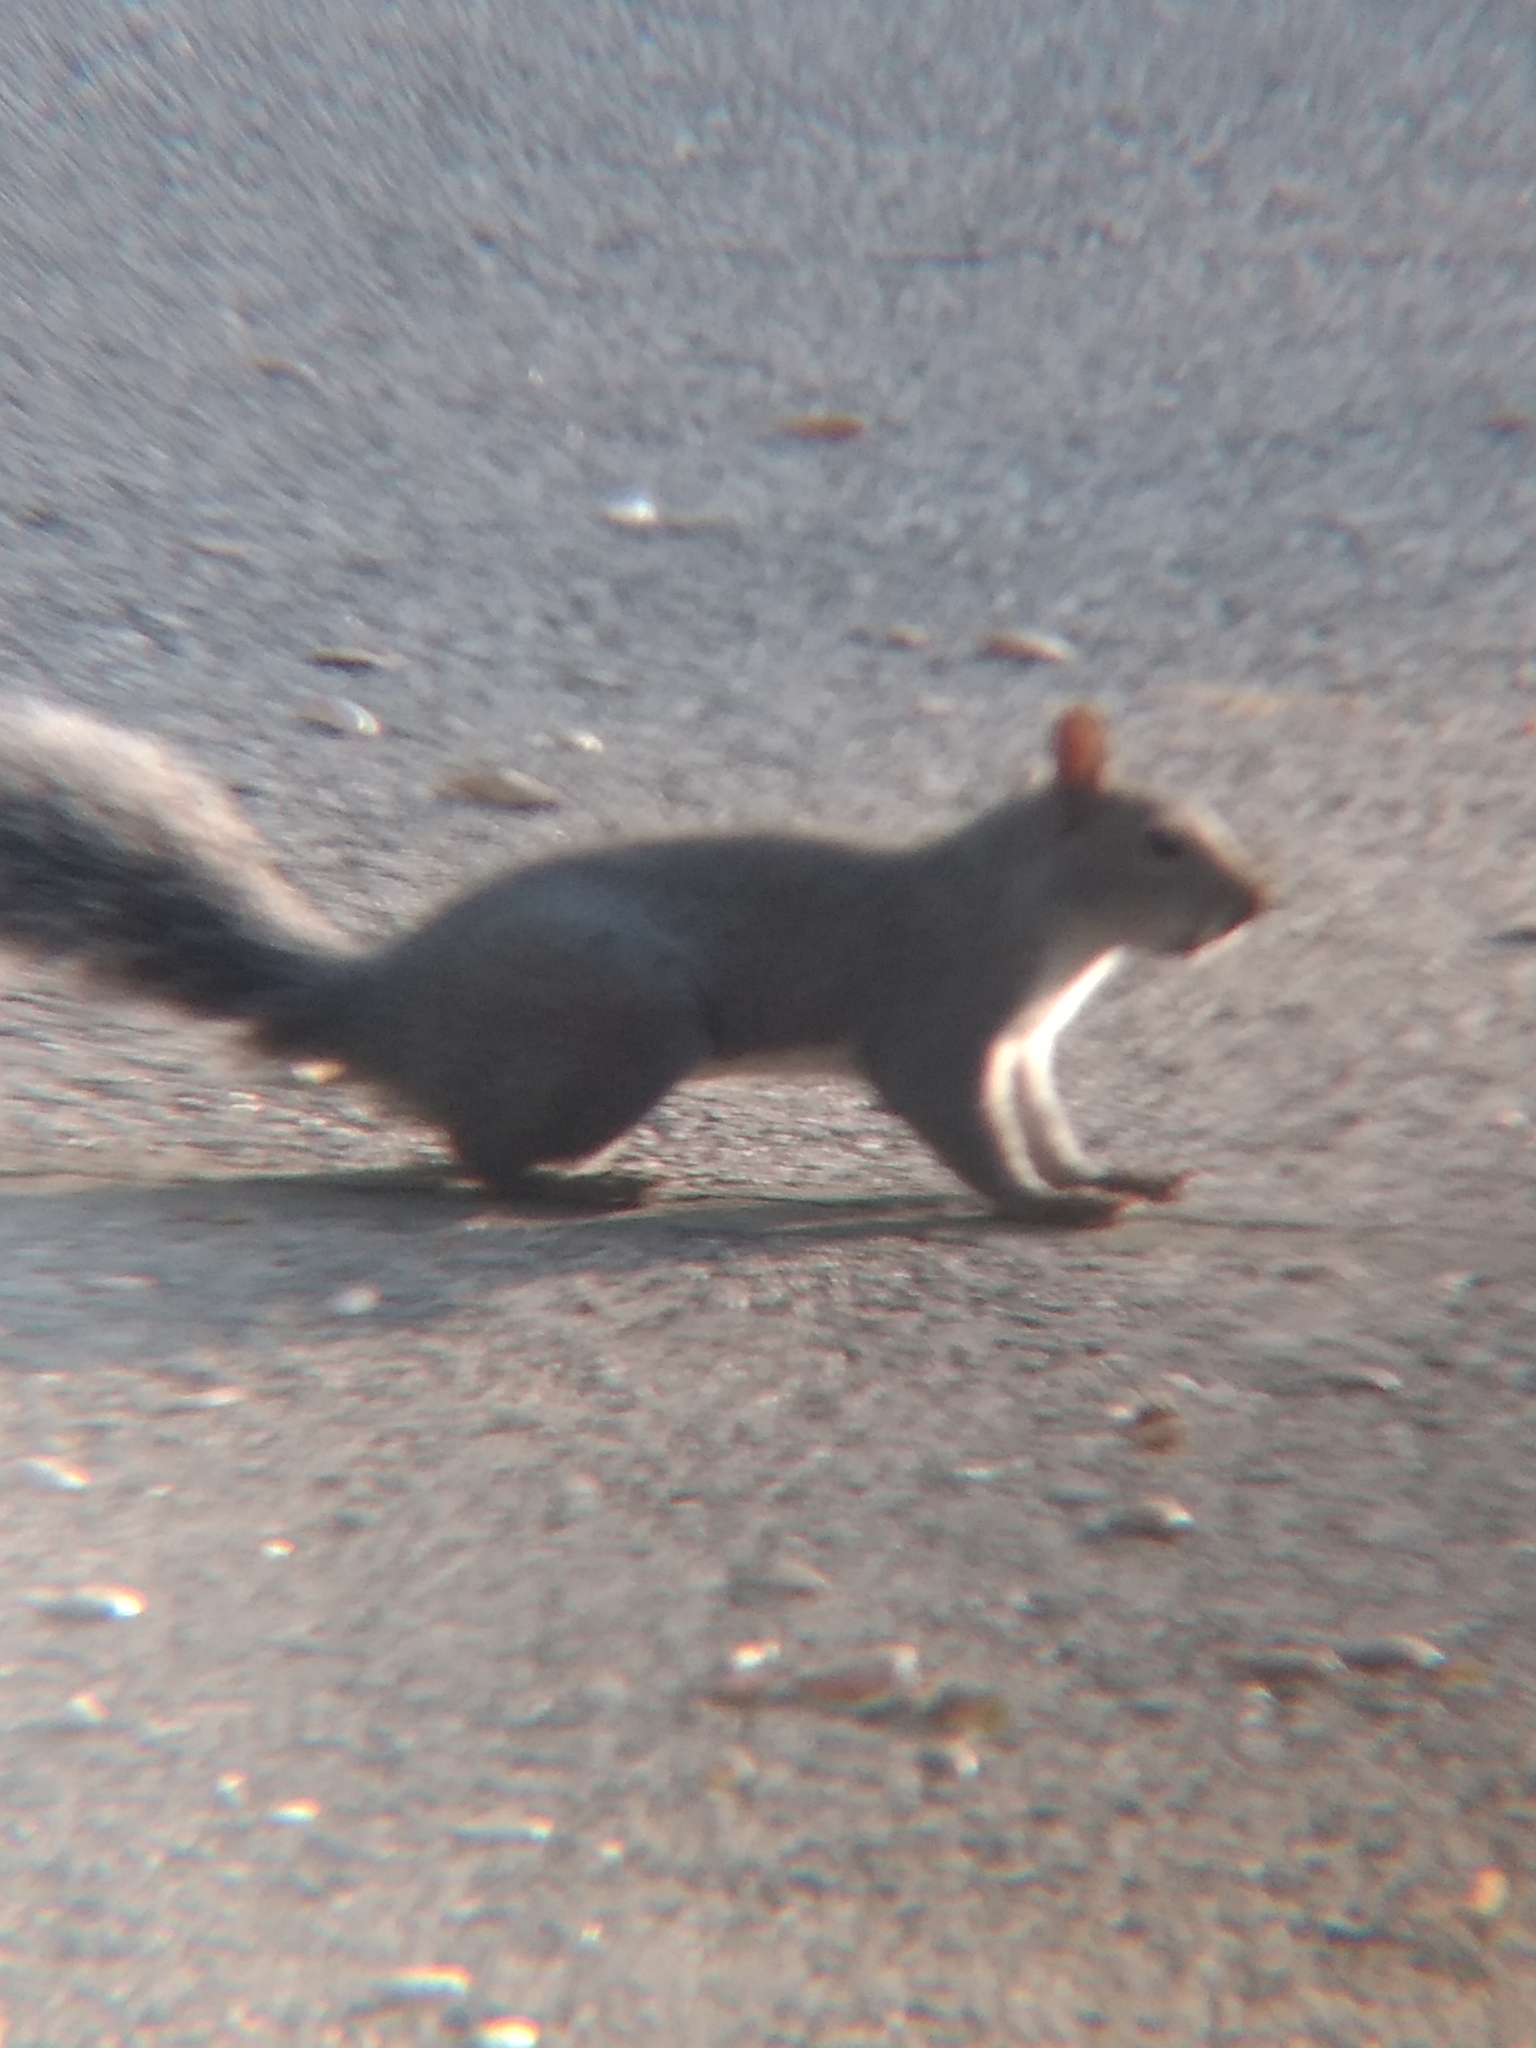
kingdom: Animalia
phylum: Chordata
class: Mammalia
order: Rodentia
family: Sciuridae
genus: Sciurus
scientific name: Sciurus griseus
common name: Western gray squirrel
